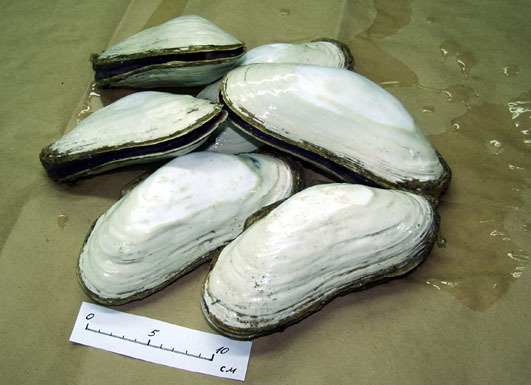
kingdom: Animalia
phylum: Mollusca
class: Bivalvia
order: Venerida
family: Vesicomyidae
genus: Turneroconcha
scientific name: Turneroconcha magnifica
